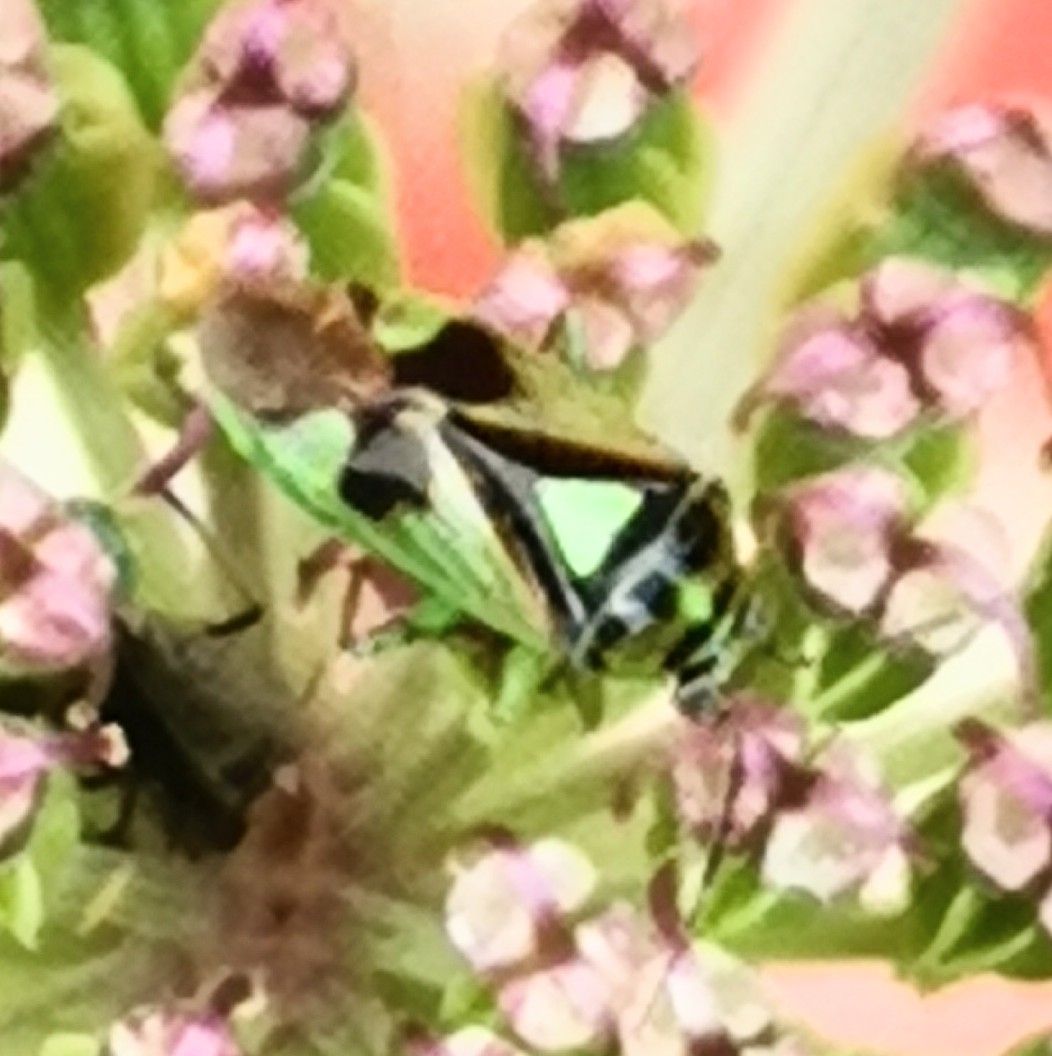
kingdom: Animalia
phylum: Arthropoda
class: Insecta
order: Hemiptera
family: Miridae
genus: Orthops
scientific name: Orthops campestris
